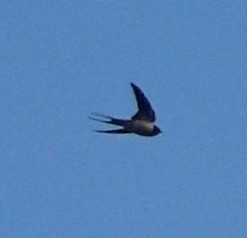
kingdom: Animalia
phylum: Chordata
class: Aves
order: Passeriformes
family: Hirundinidae
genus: Hirundo
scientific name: Hirundo rustica
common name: Barn swallow
